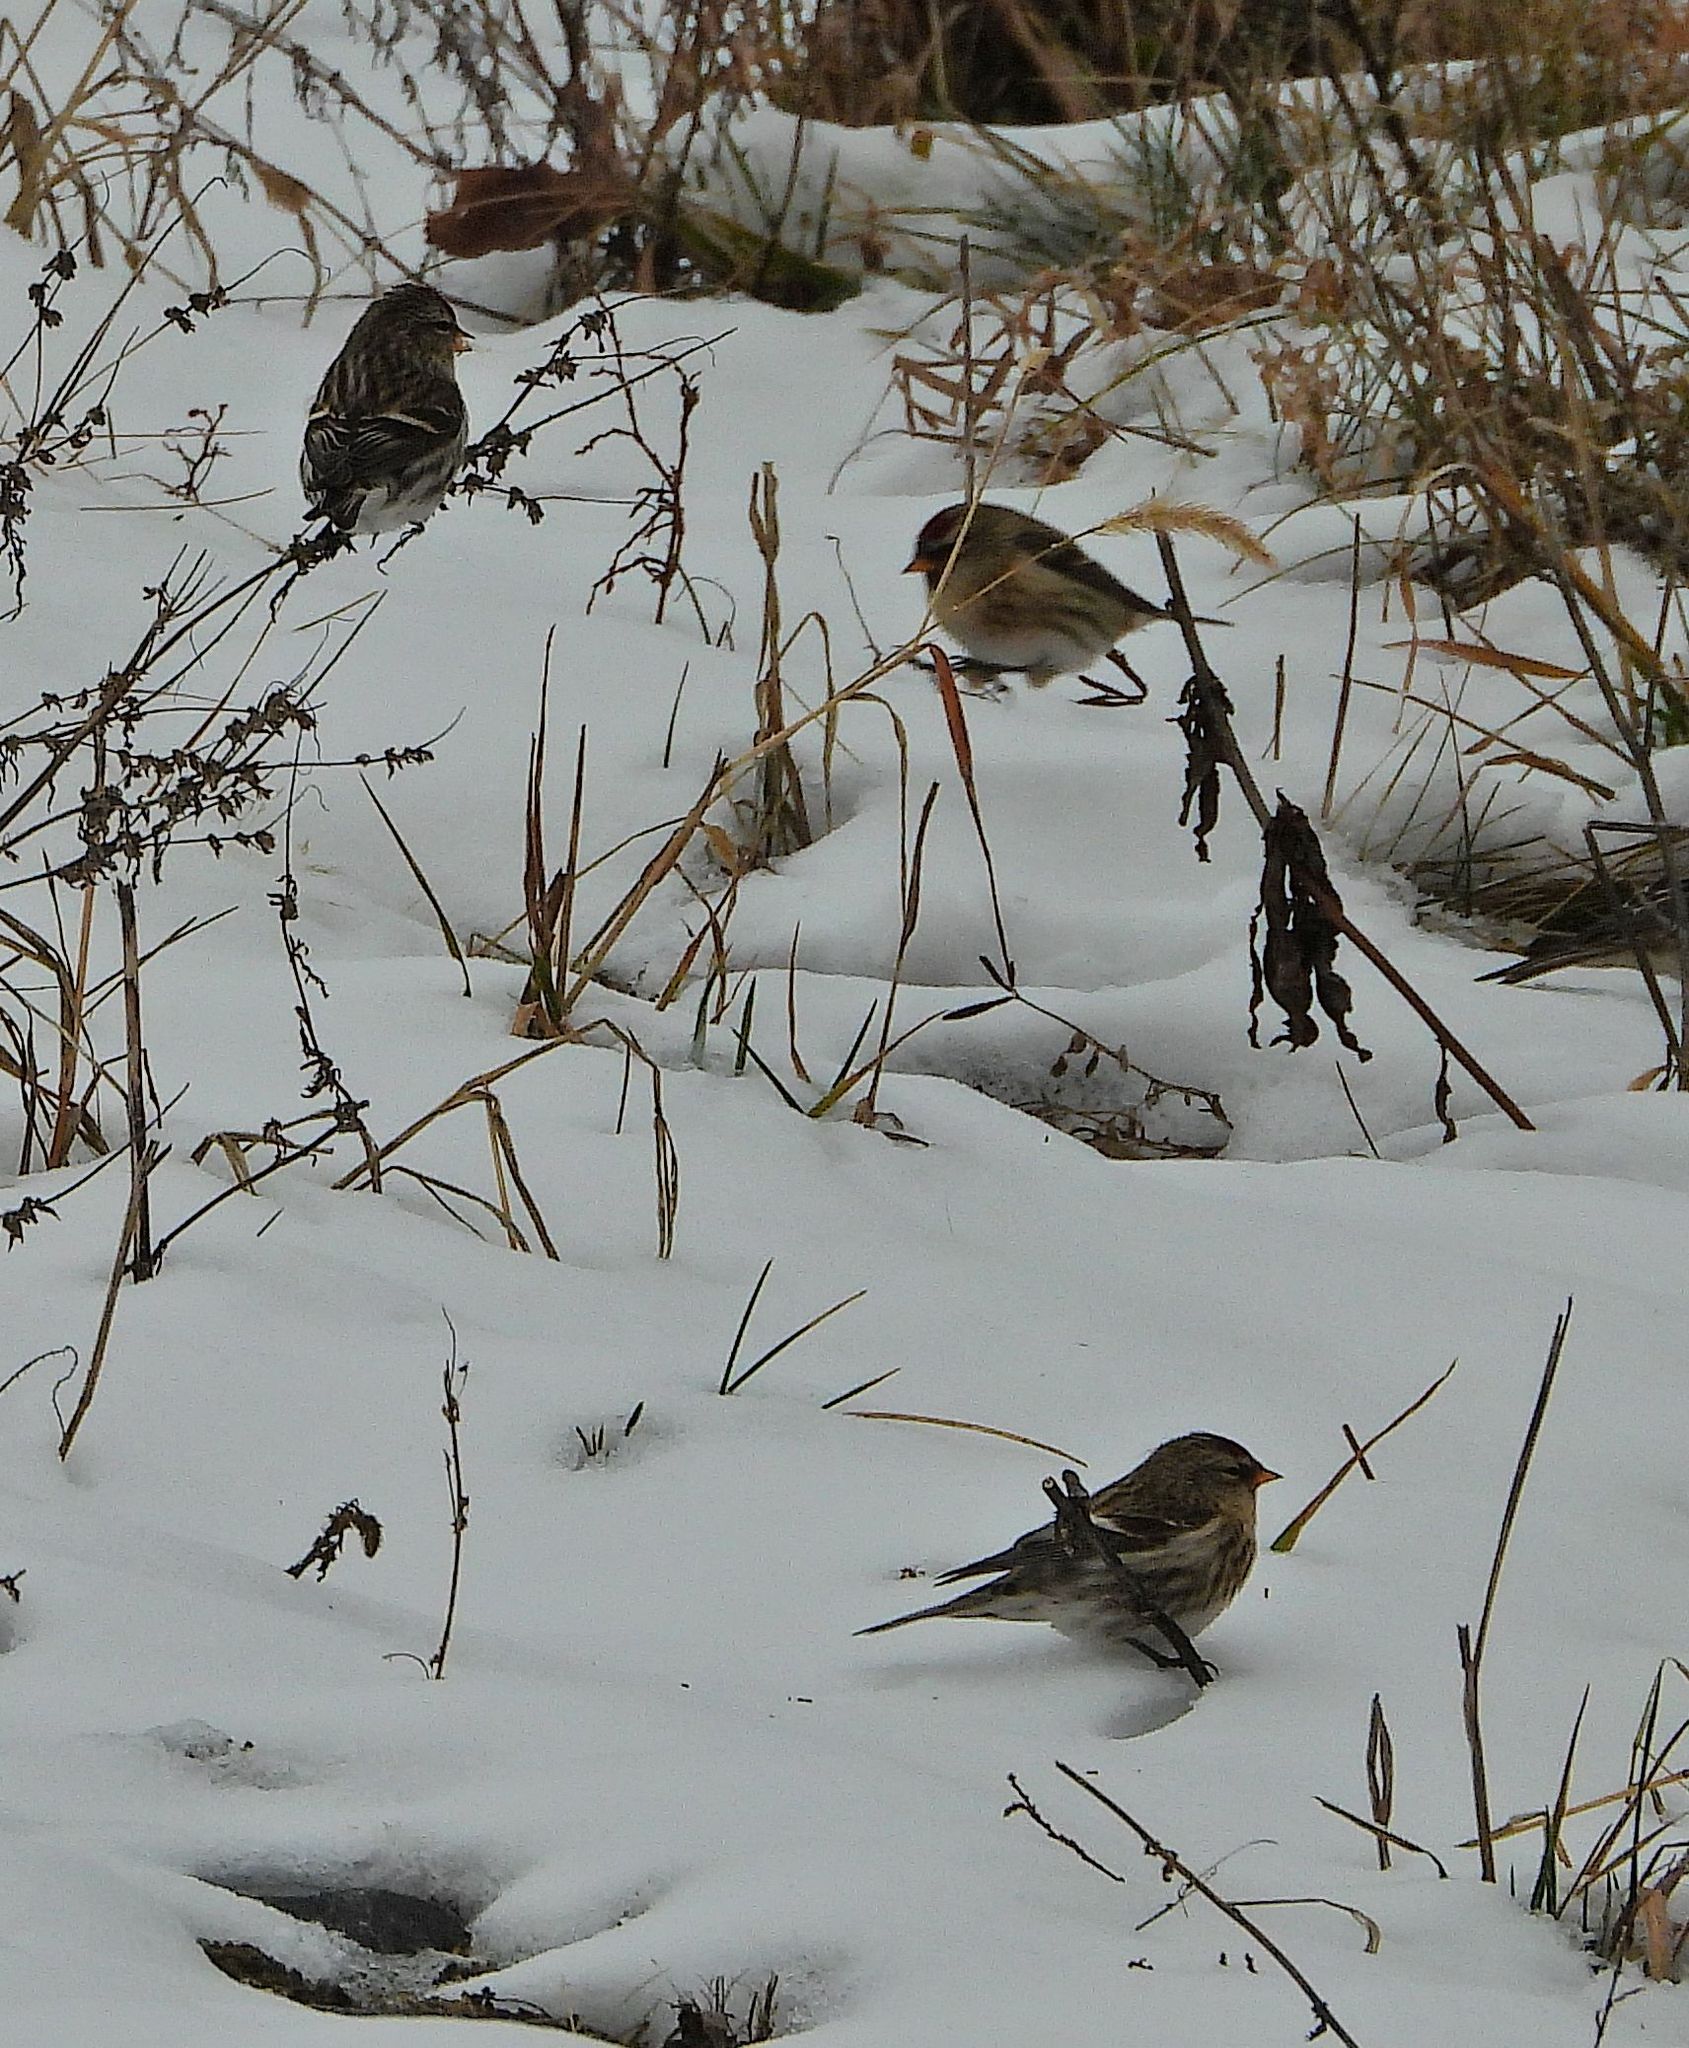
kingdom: Animalia
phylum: Chordata
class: Aves
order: Passeriformes
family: Fringillidae
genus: Acanthis
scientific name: Acanthis flammea
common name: Common redpoll
